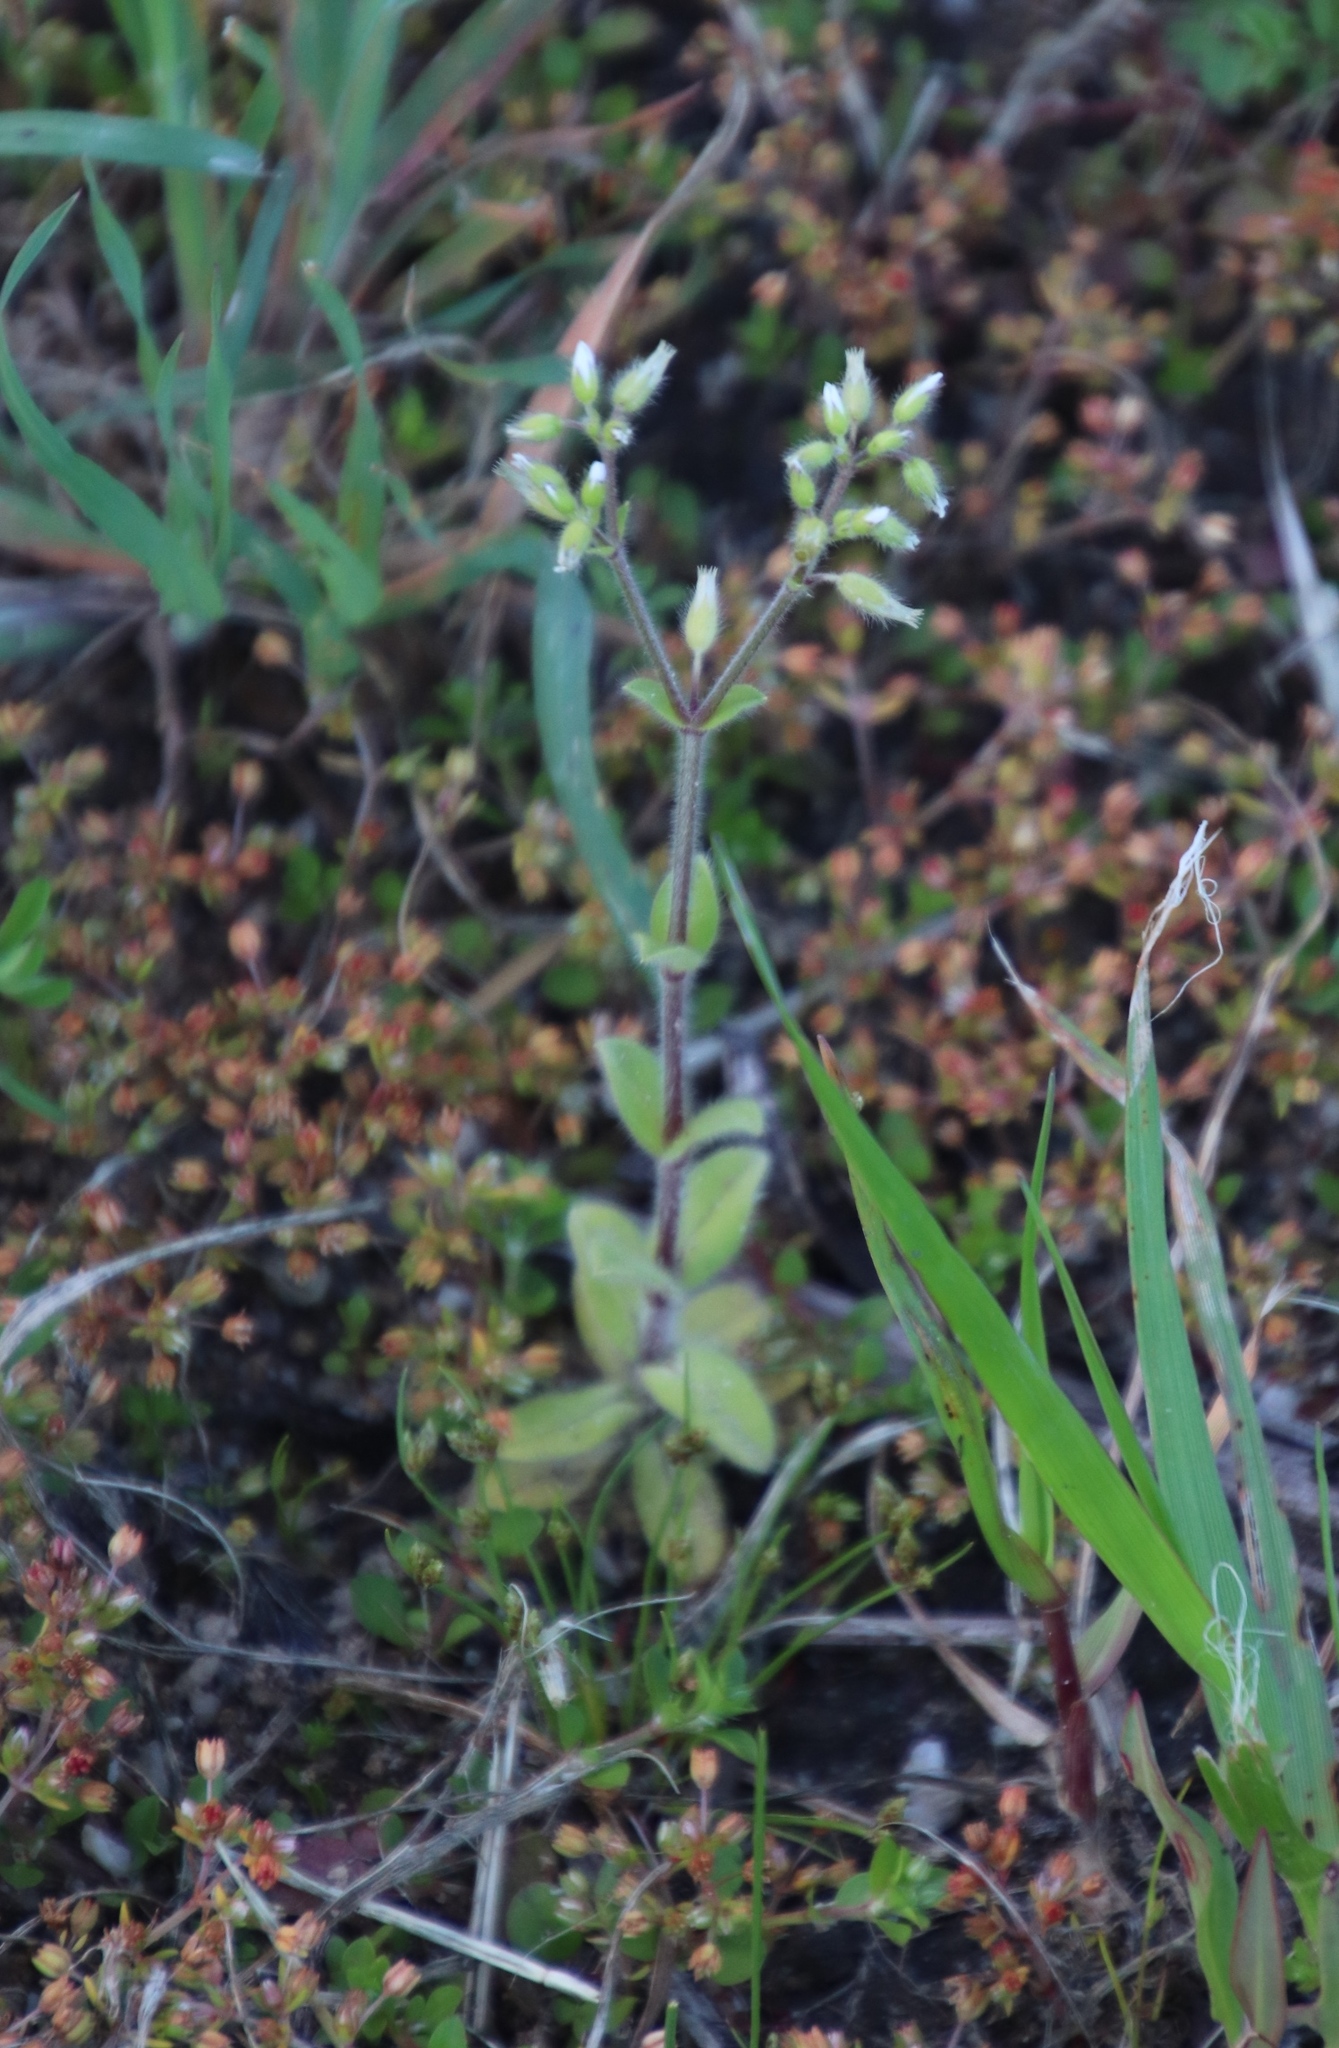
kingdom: Plantae
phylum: Tracheophyta
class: Magnoliopsida
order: Caryophyllales
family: Caryophyllaceae
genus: Cerastium
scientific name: Cerastium glomeratum
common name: Sticky chickweed
